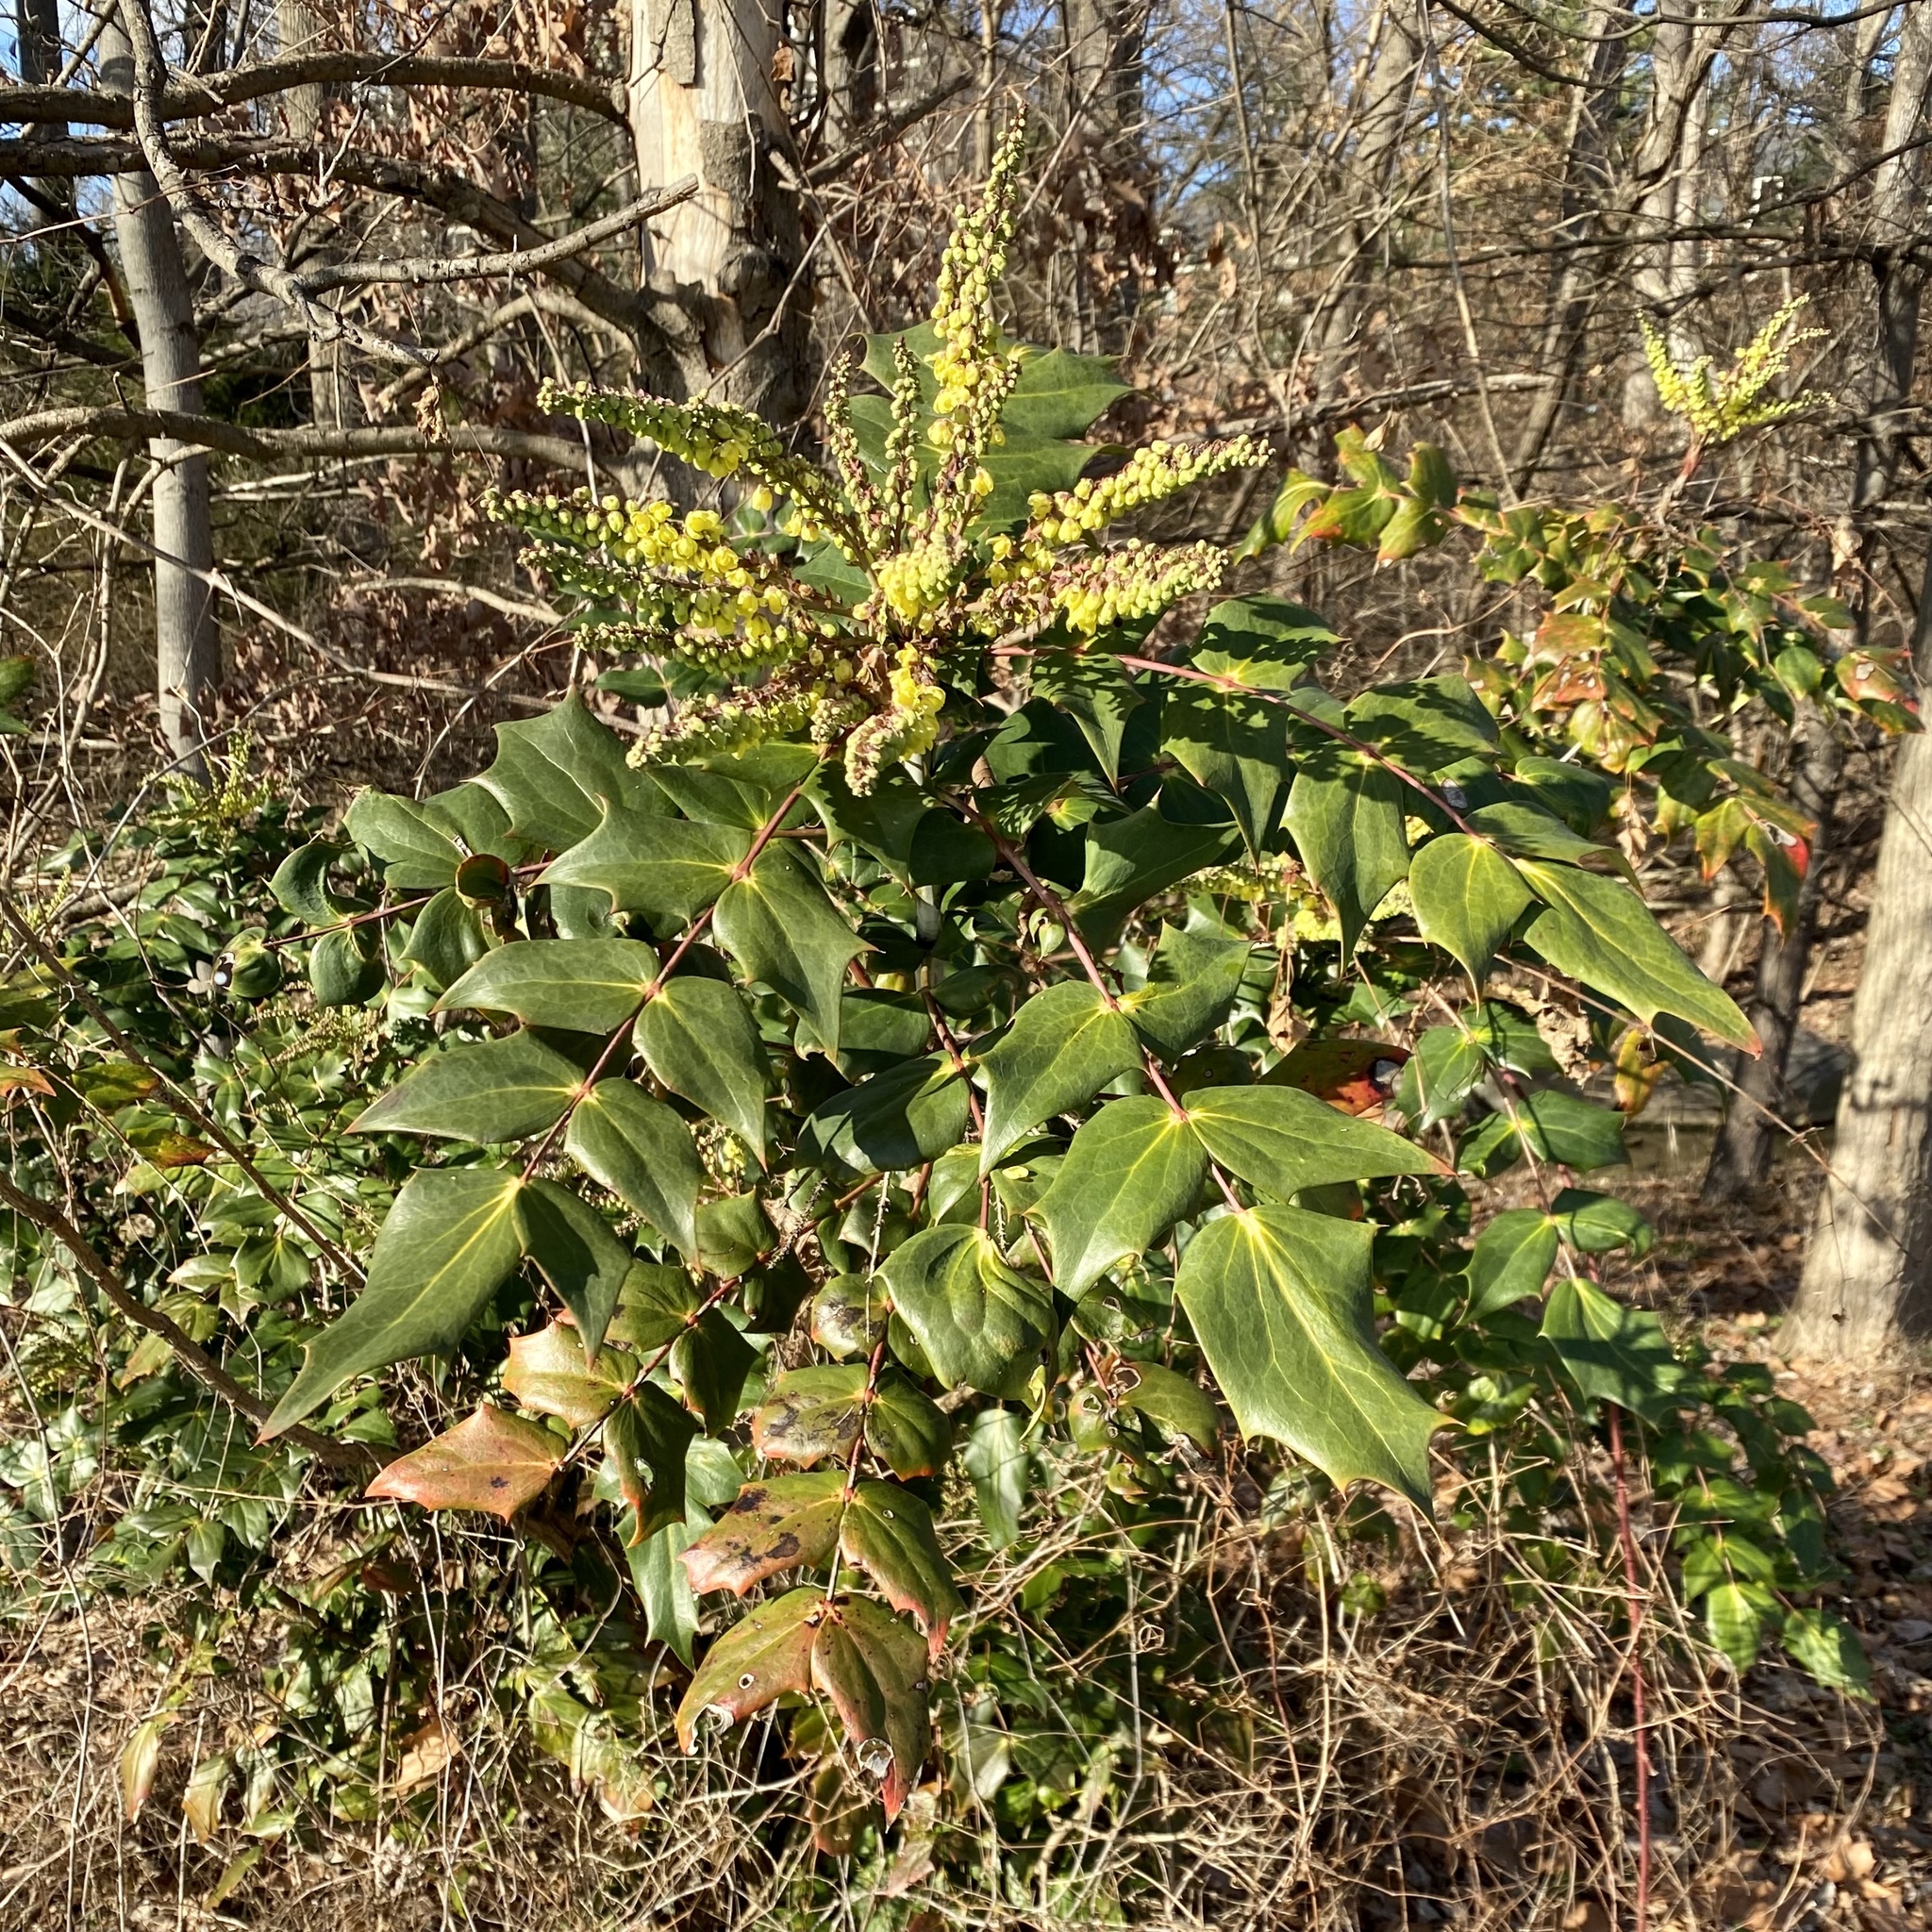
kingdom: Plantae
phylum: Tracheophyta
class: Magnoliopsida
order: Ranunculales
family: Berberidaceae
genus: Mahonia
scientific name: Mahonia bealei
